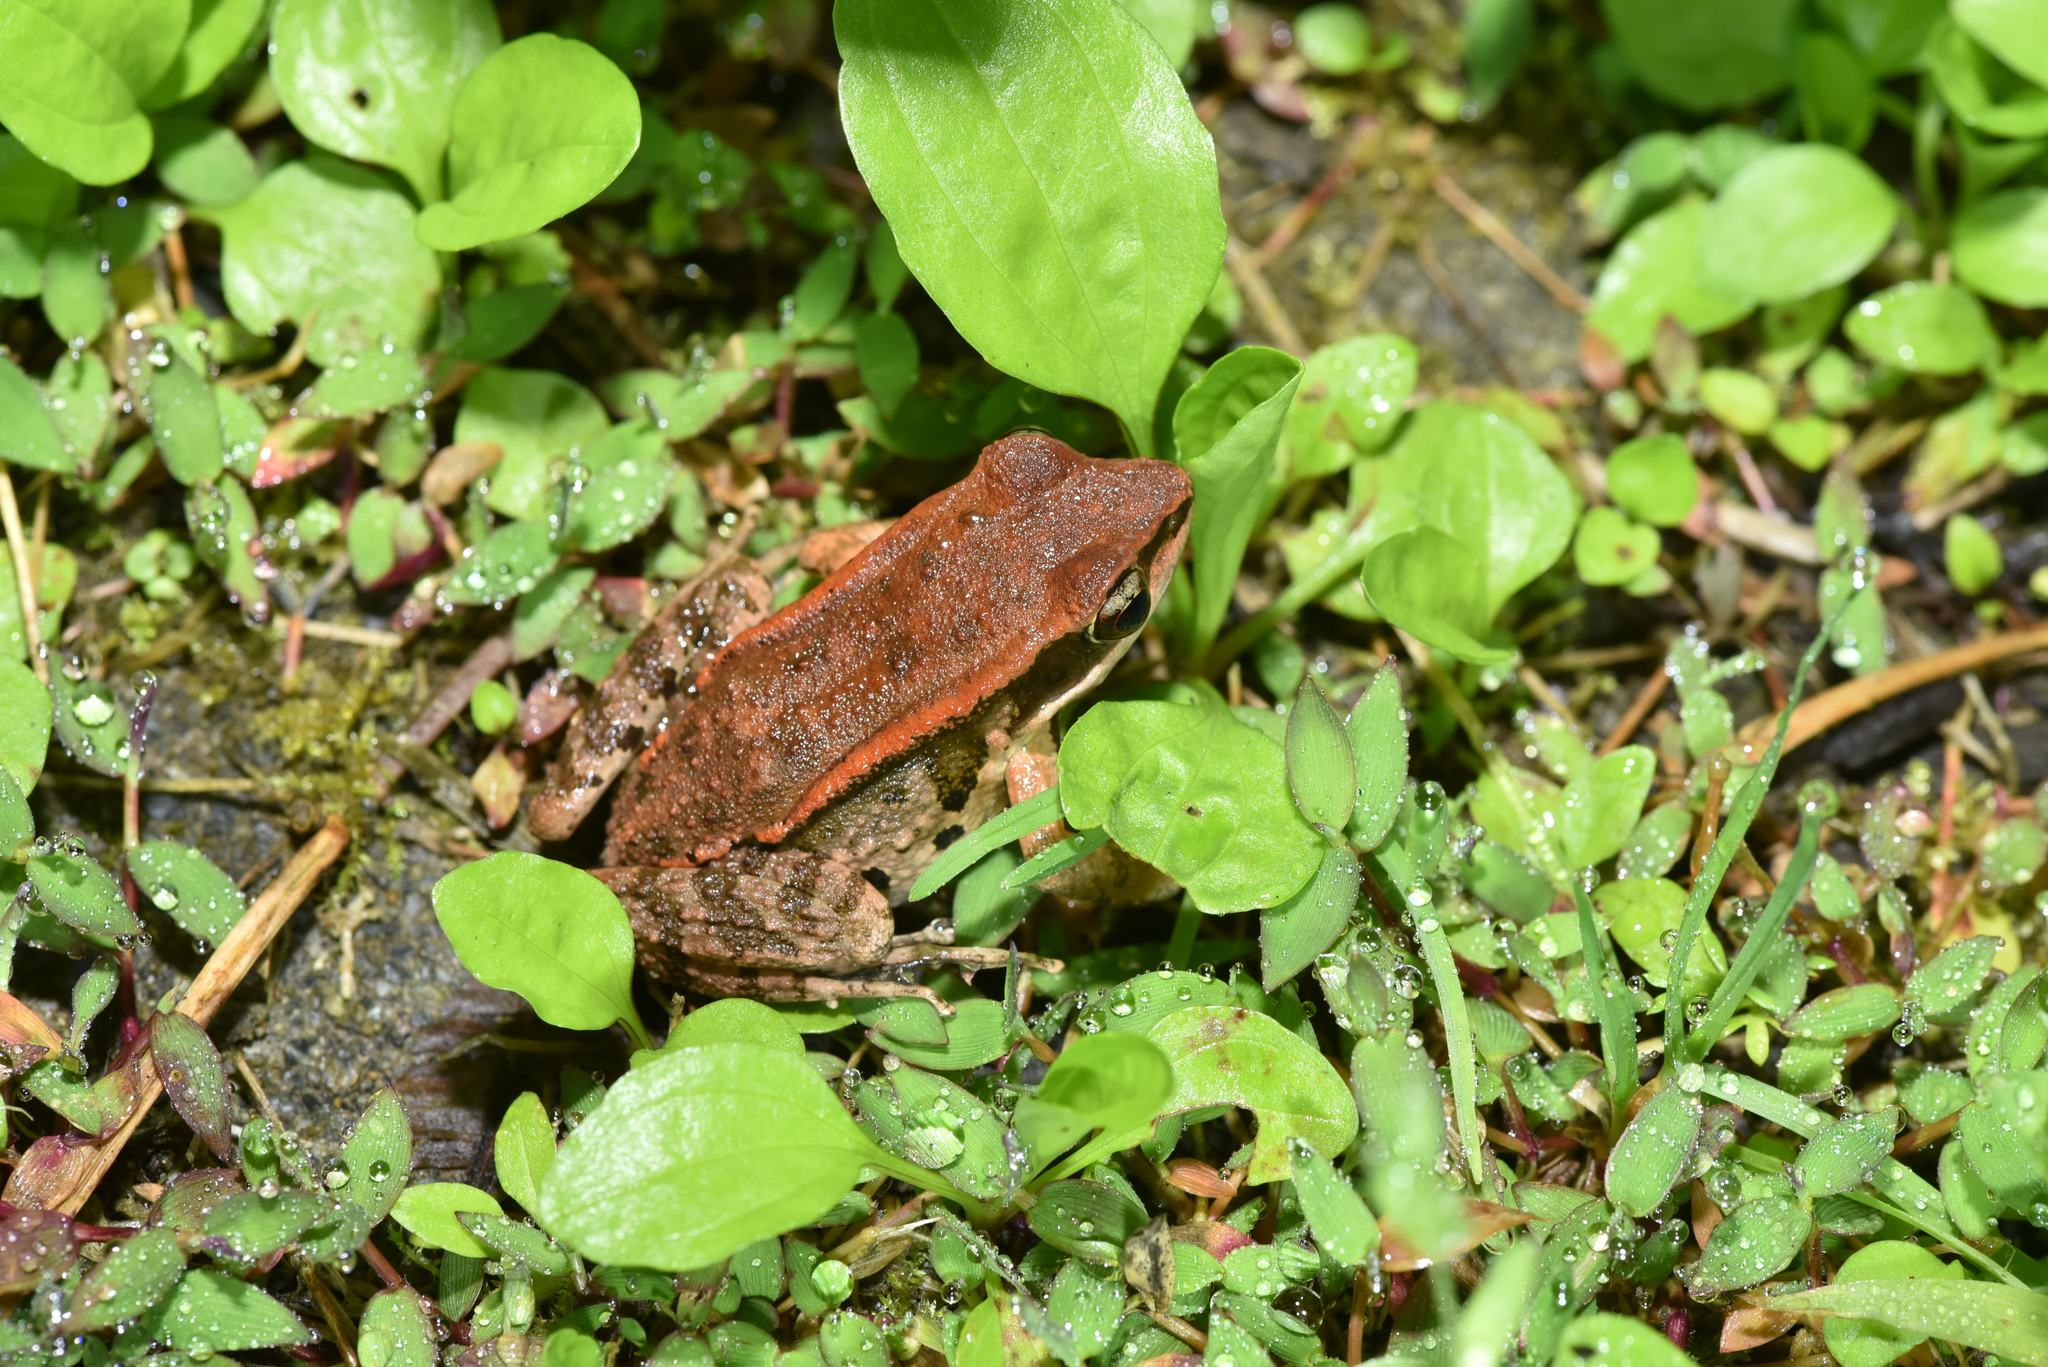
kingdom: Animalia
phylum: Chordata
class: Amphibia
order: Anura
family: Ranidae
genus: Hylarana
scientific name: Hylarana latouchii
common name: Broad-folded frog
